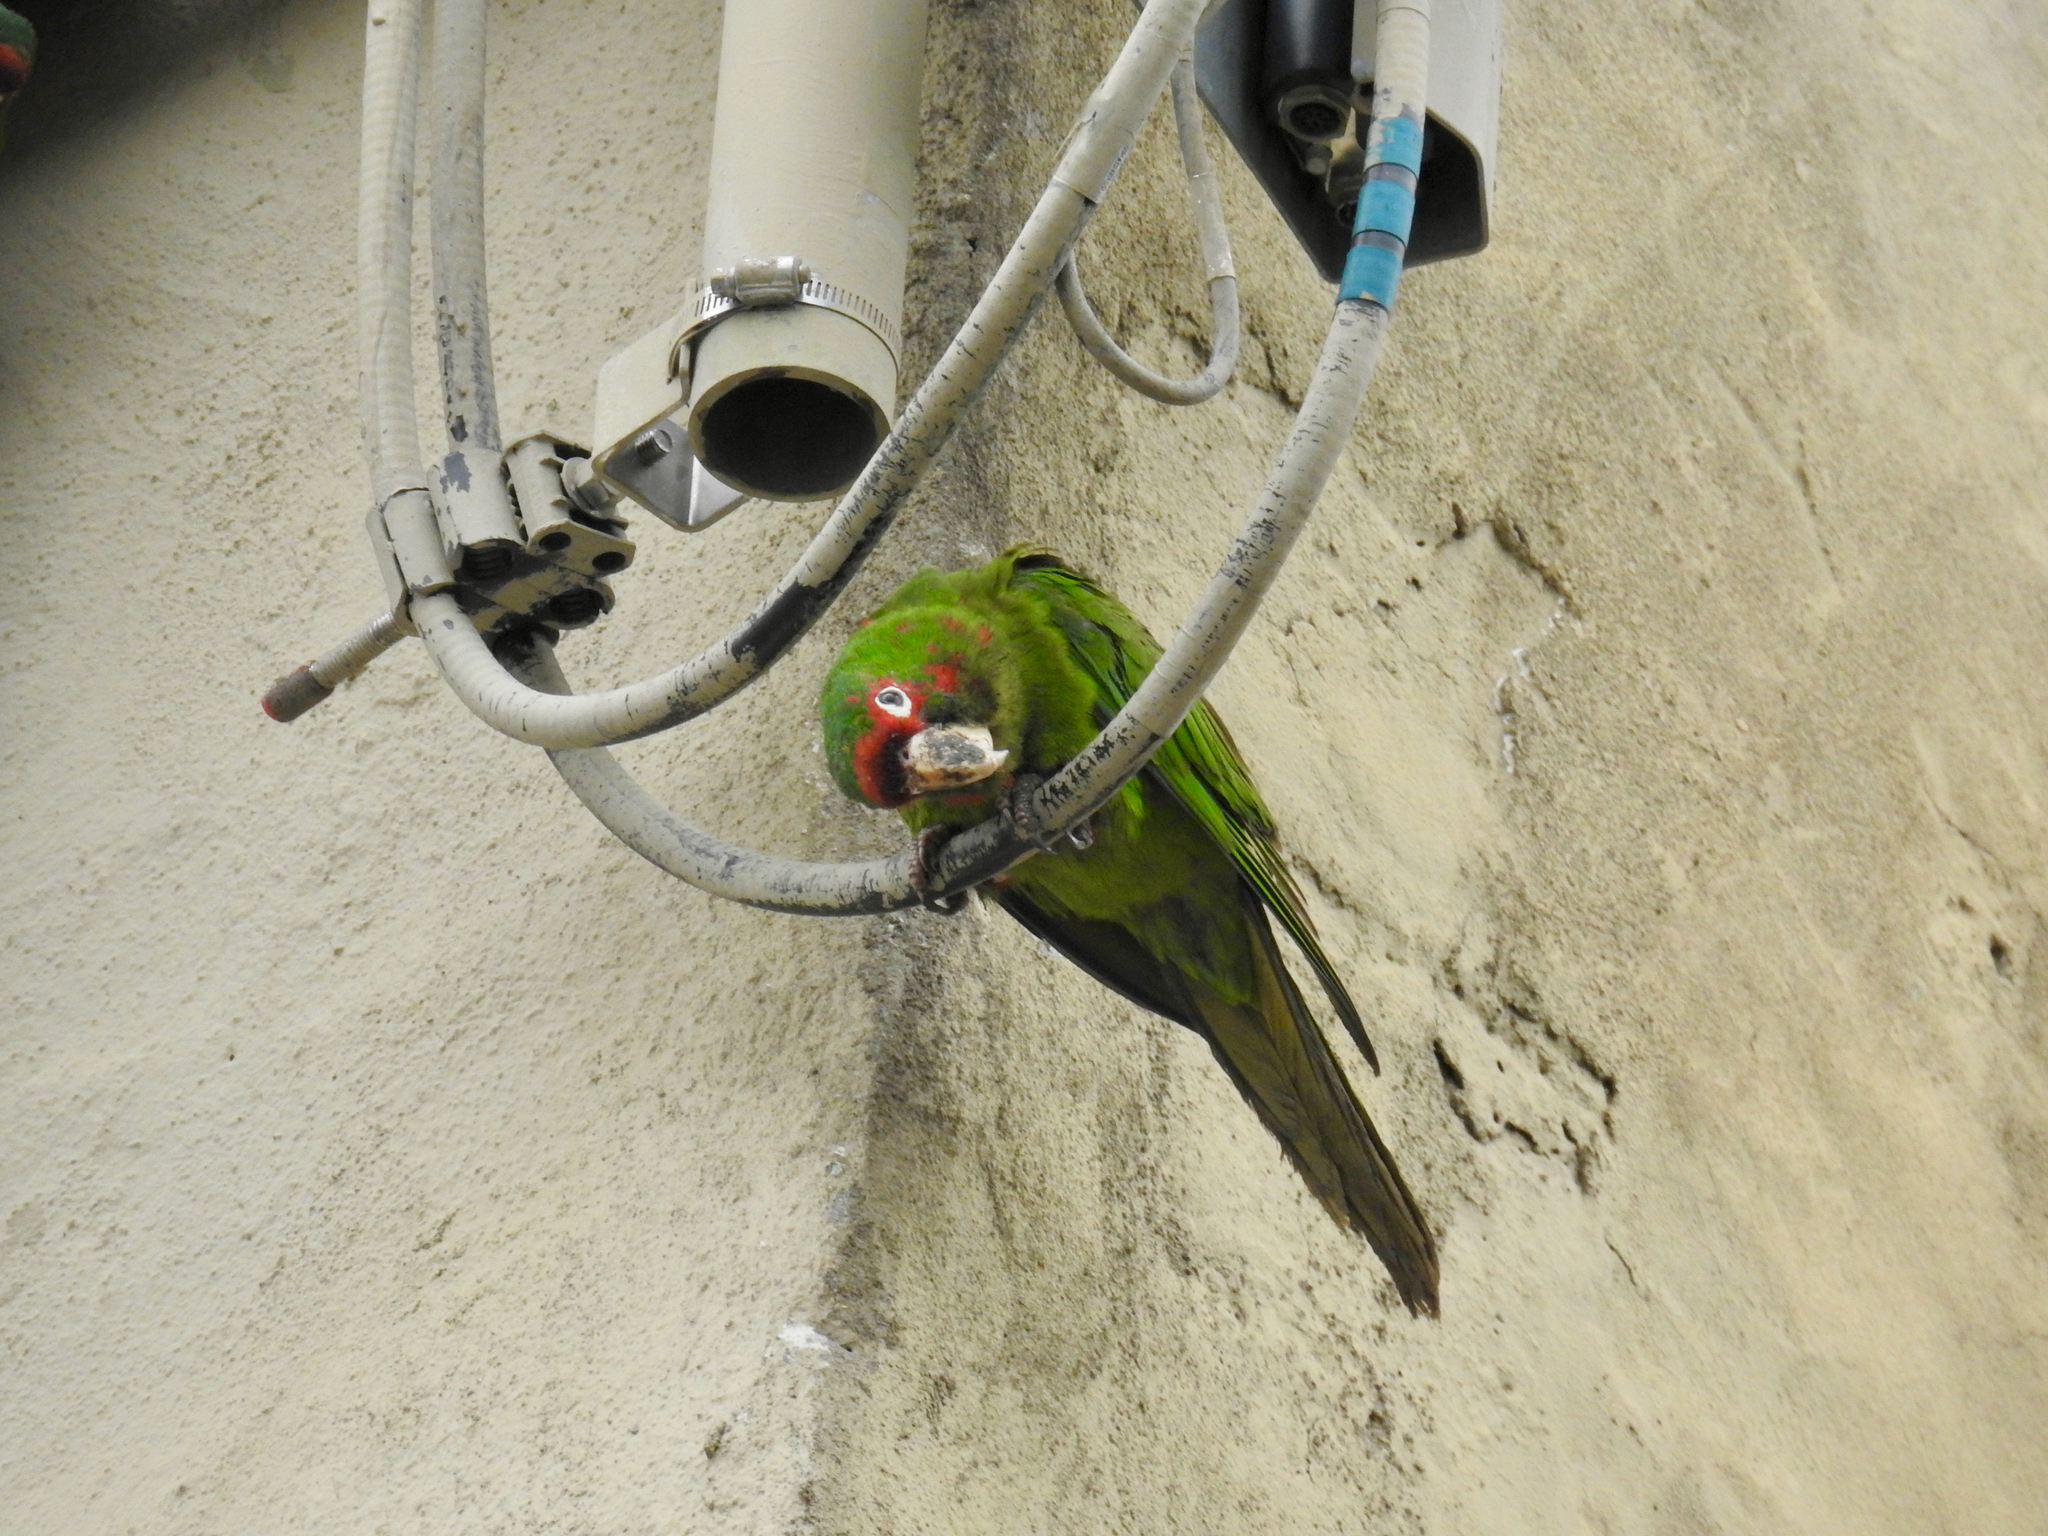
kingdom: Animalia
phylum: Chordata
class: Aves
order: Psittaciformes
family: Psittacidae
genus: Aratinga
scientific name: Aratinga mitrata
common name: Mitred parakeet
